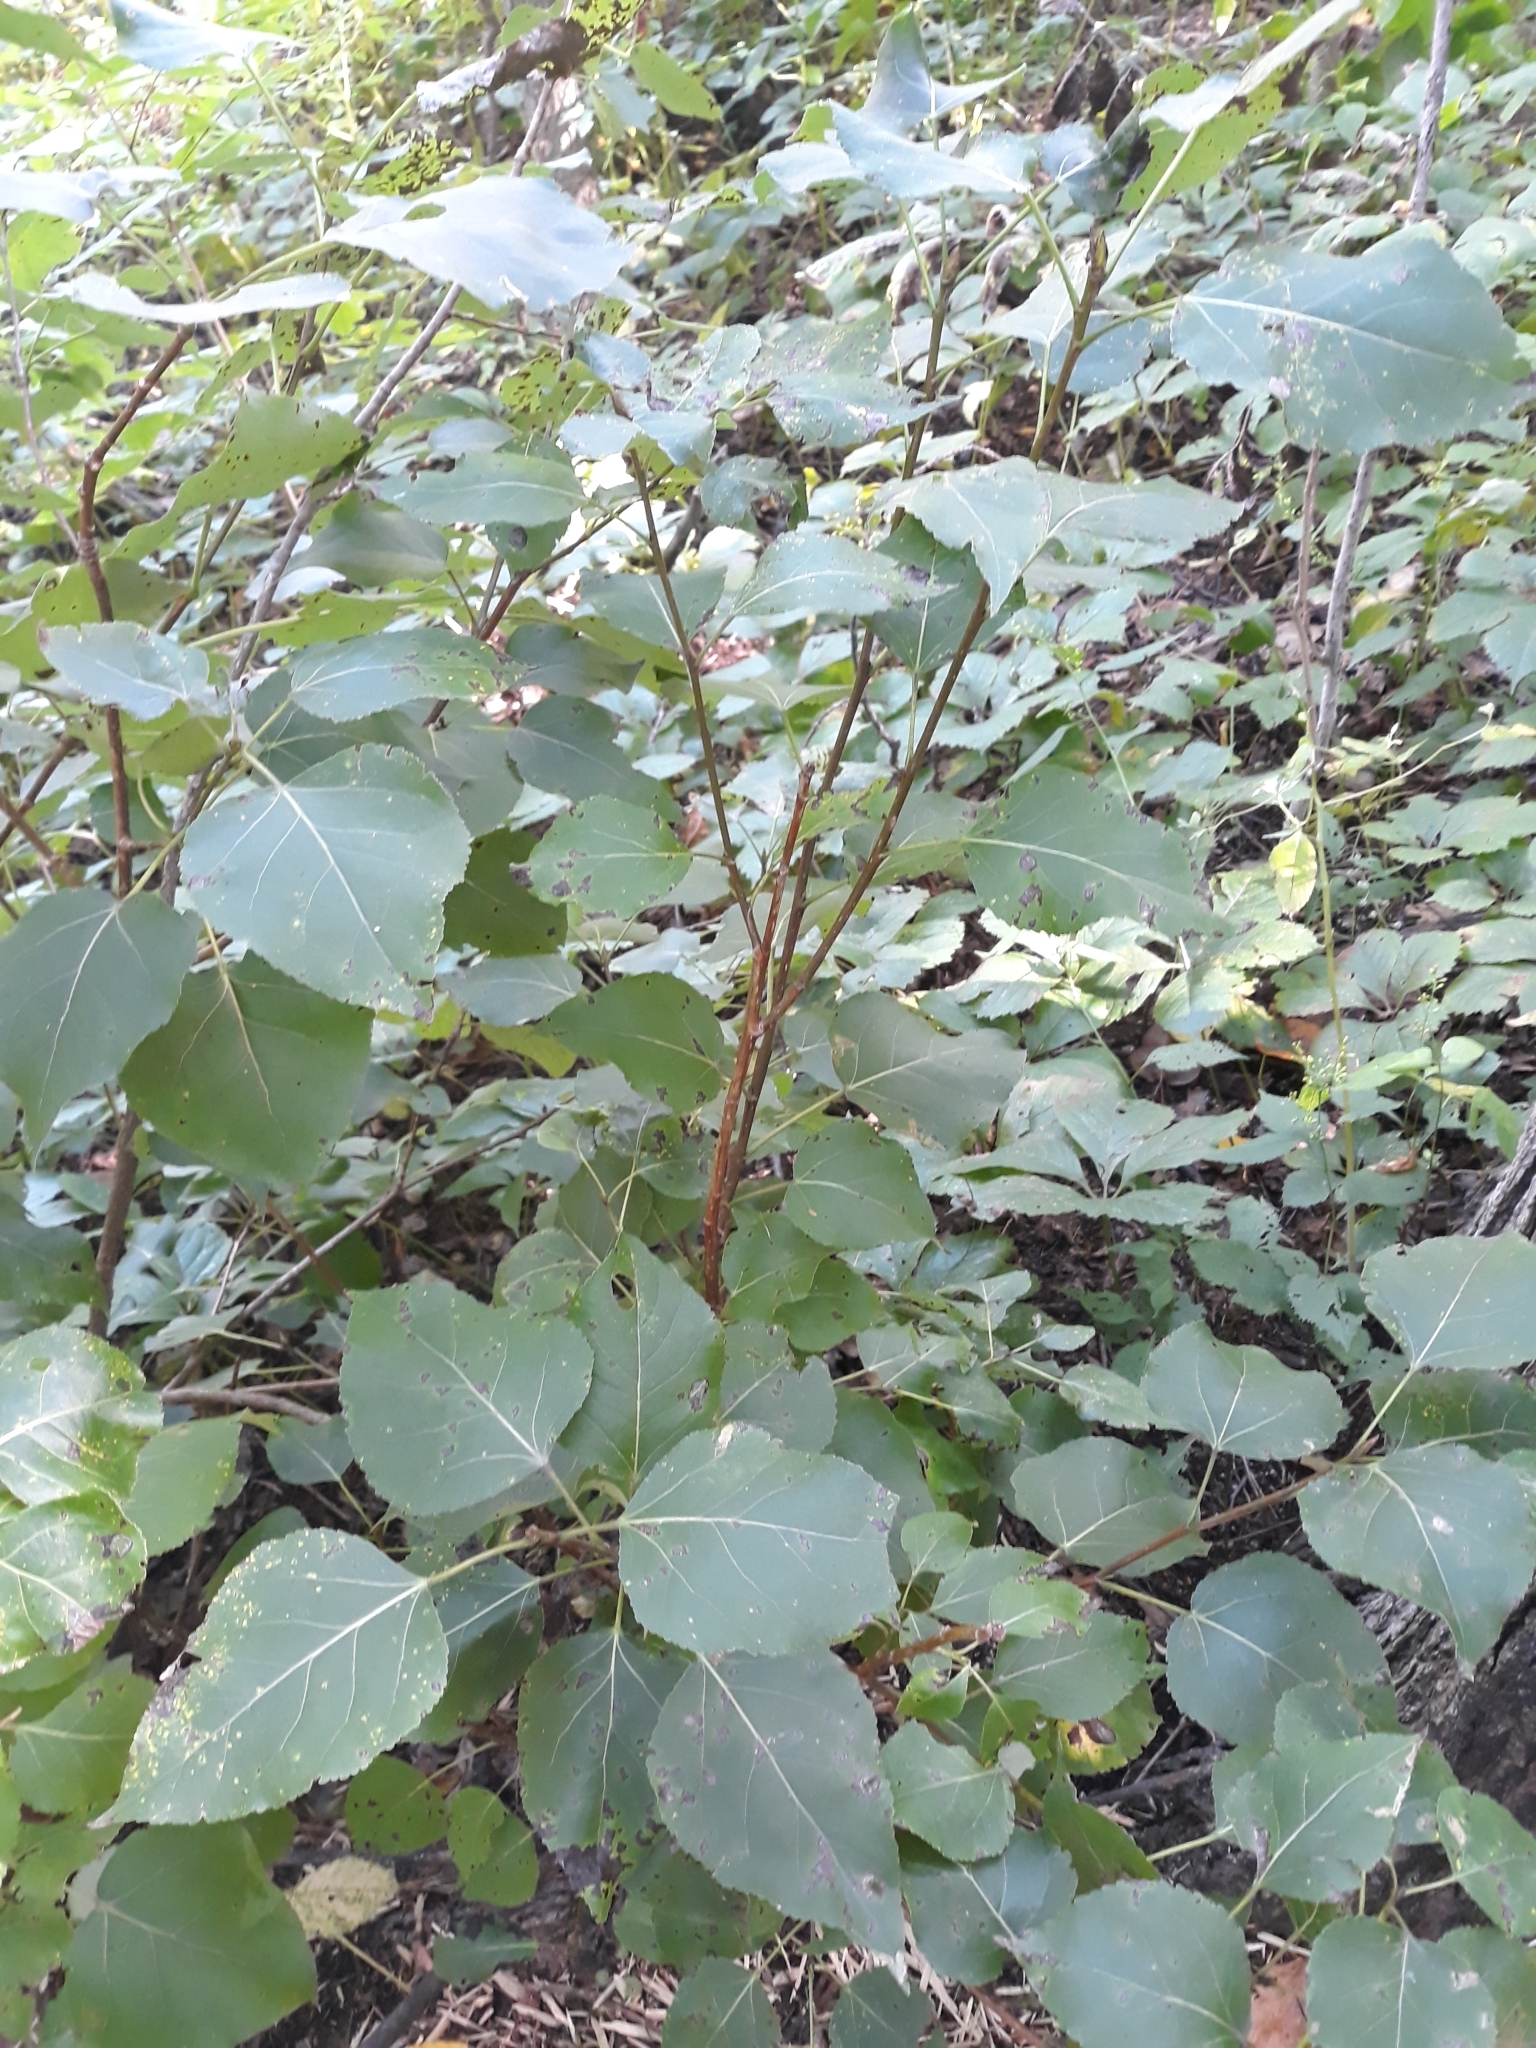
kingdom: Plantae
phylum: Tracheophyta
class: Magnoliopsida
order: Malpighiales
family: Salicaceae
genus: Populus
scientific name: Populus balsamifera
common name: Balsam poplar
